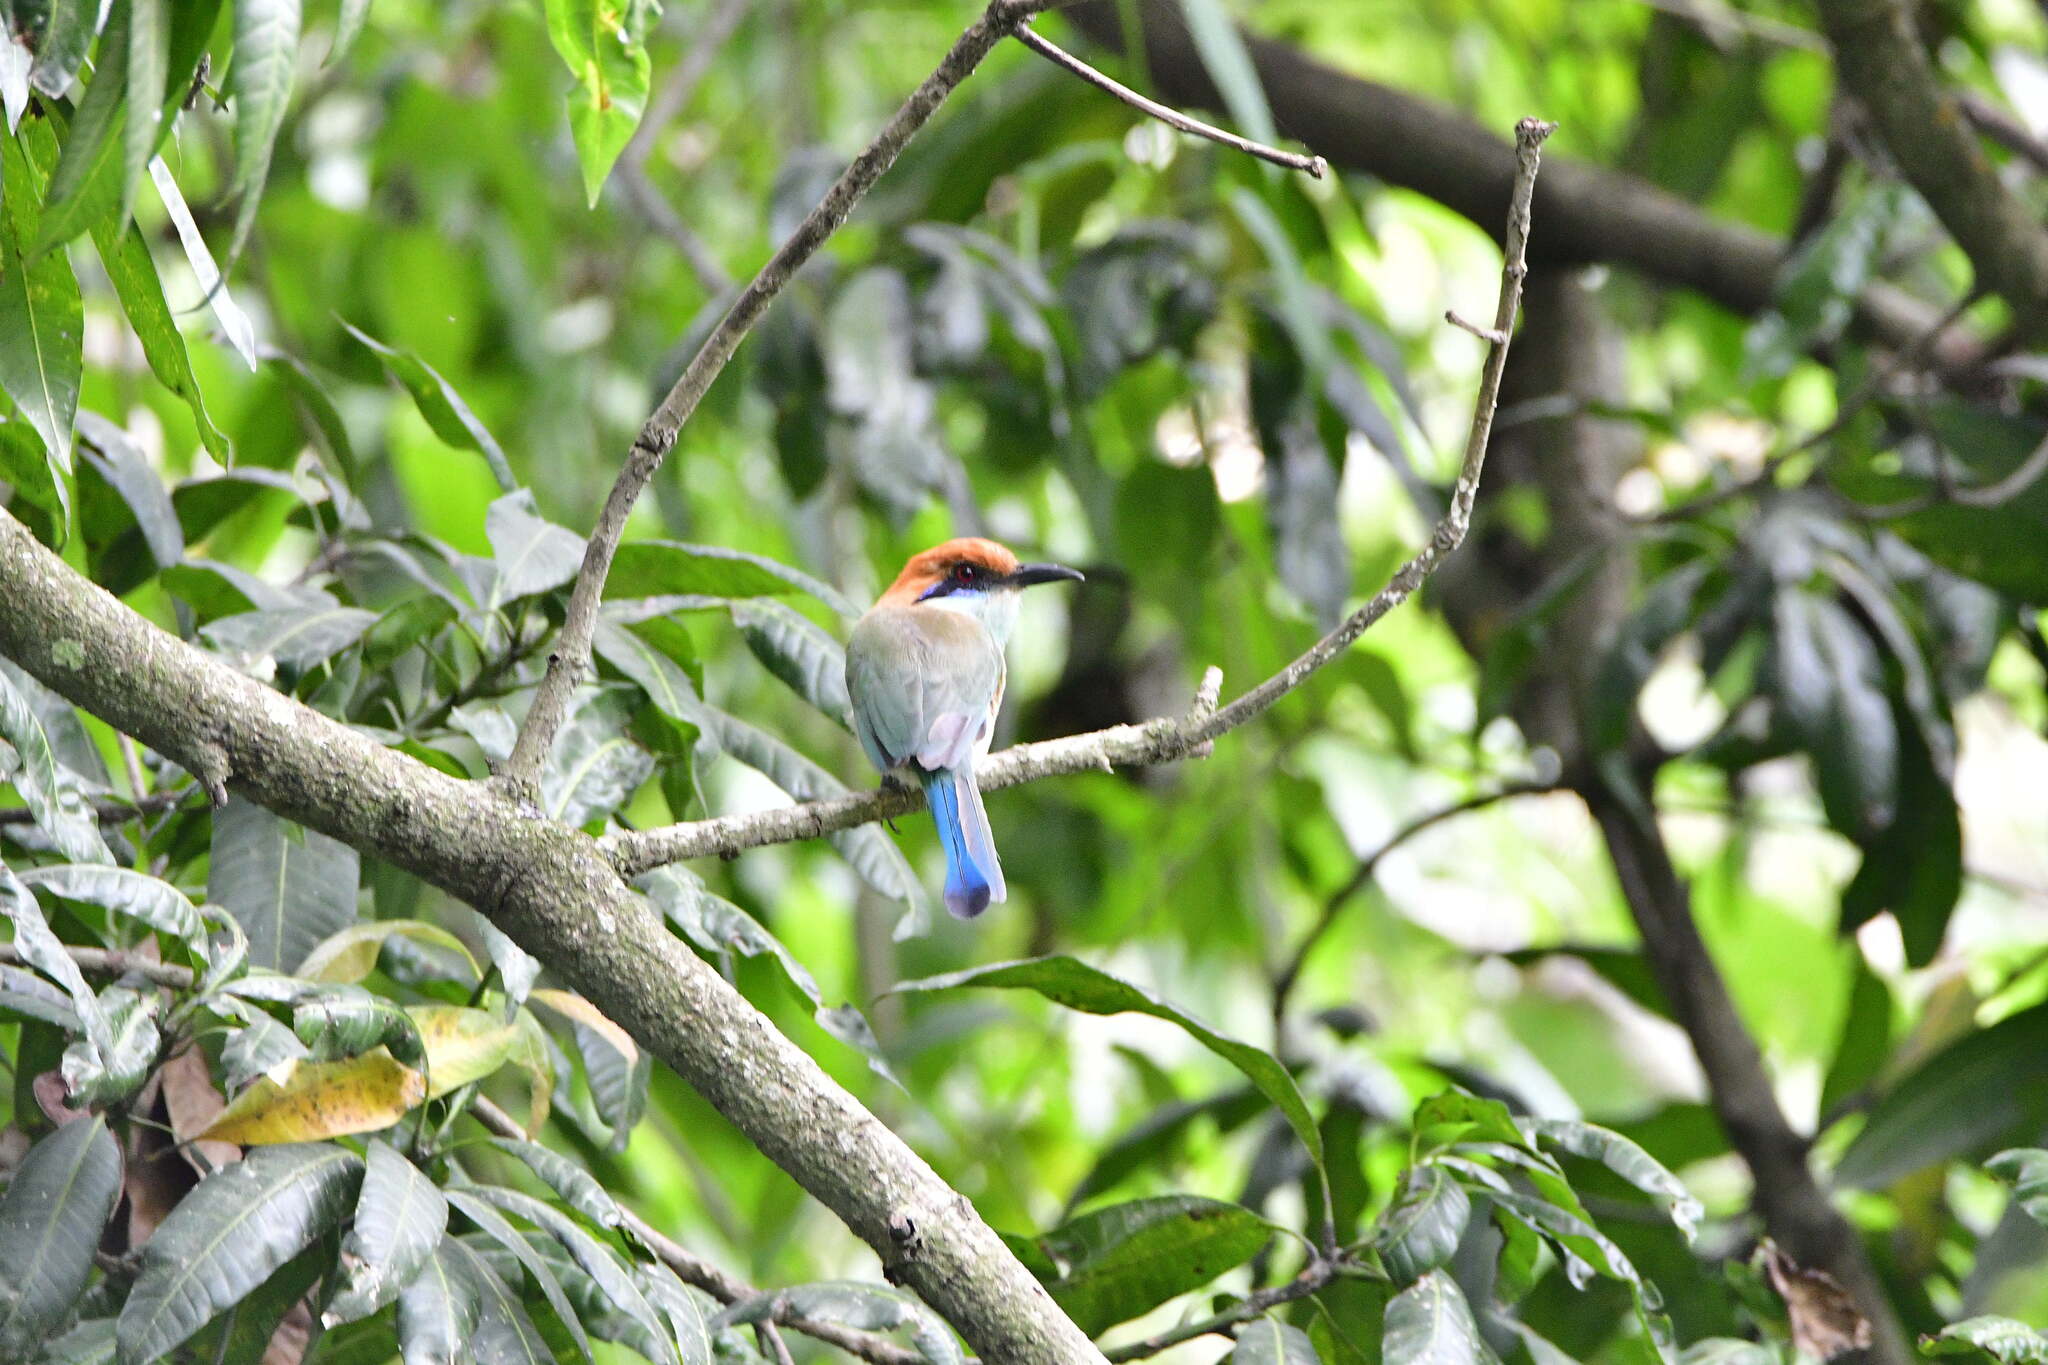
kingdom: Animalia
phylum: Chordata
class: Aves
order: Coraciiformes
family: Momotidae
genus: Momotus
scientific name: Momotus mexicanus
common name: Russet-crowned motmot
